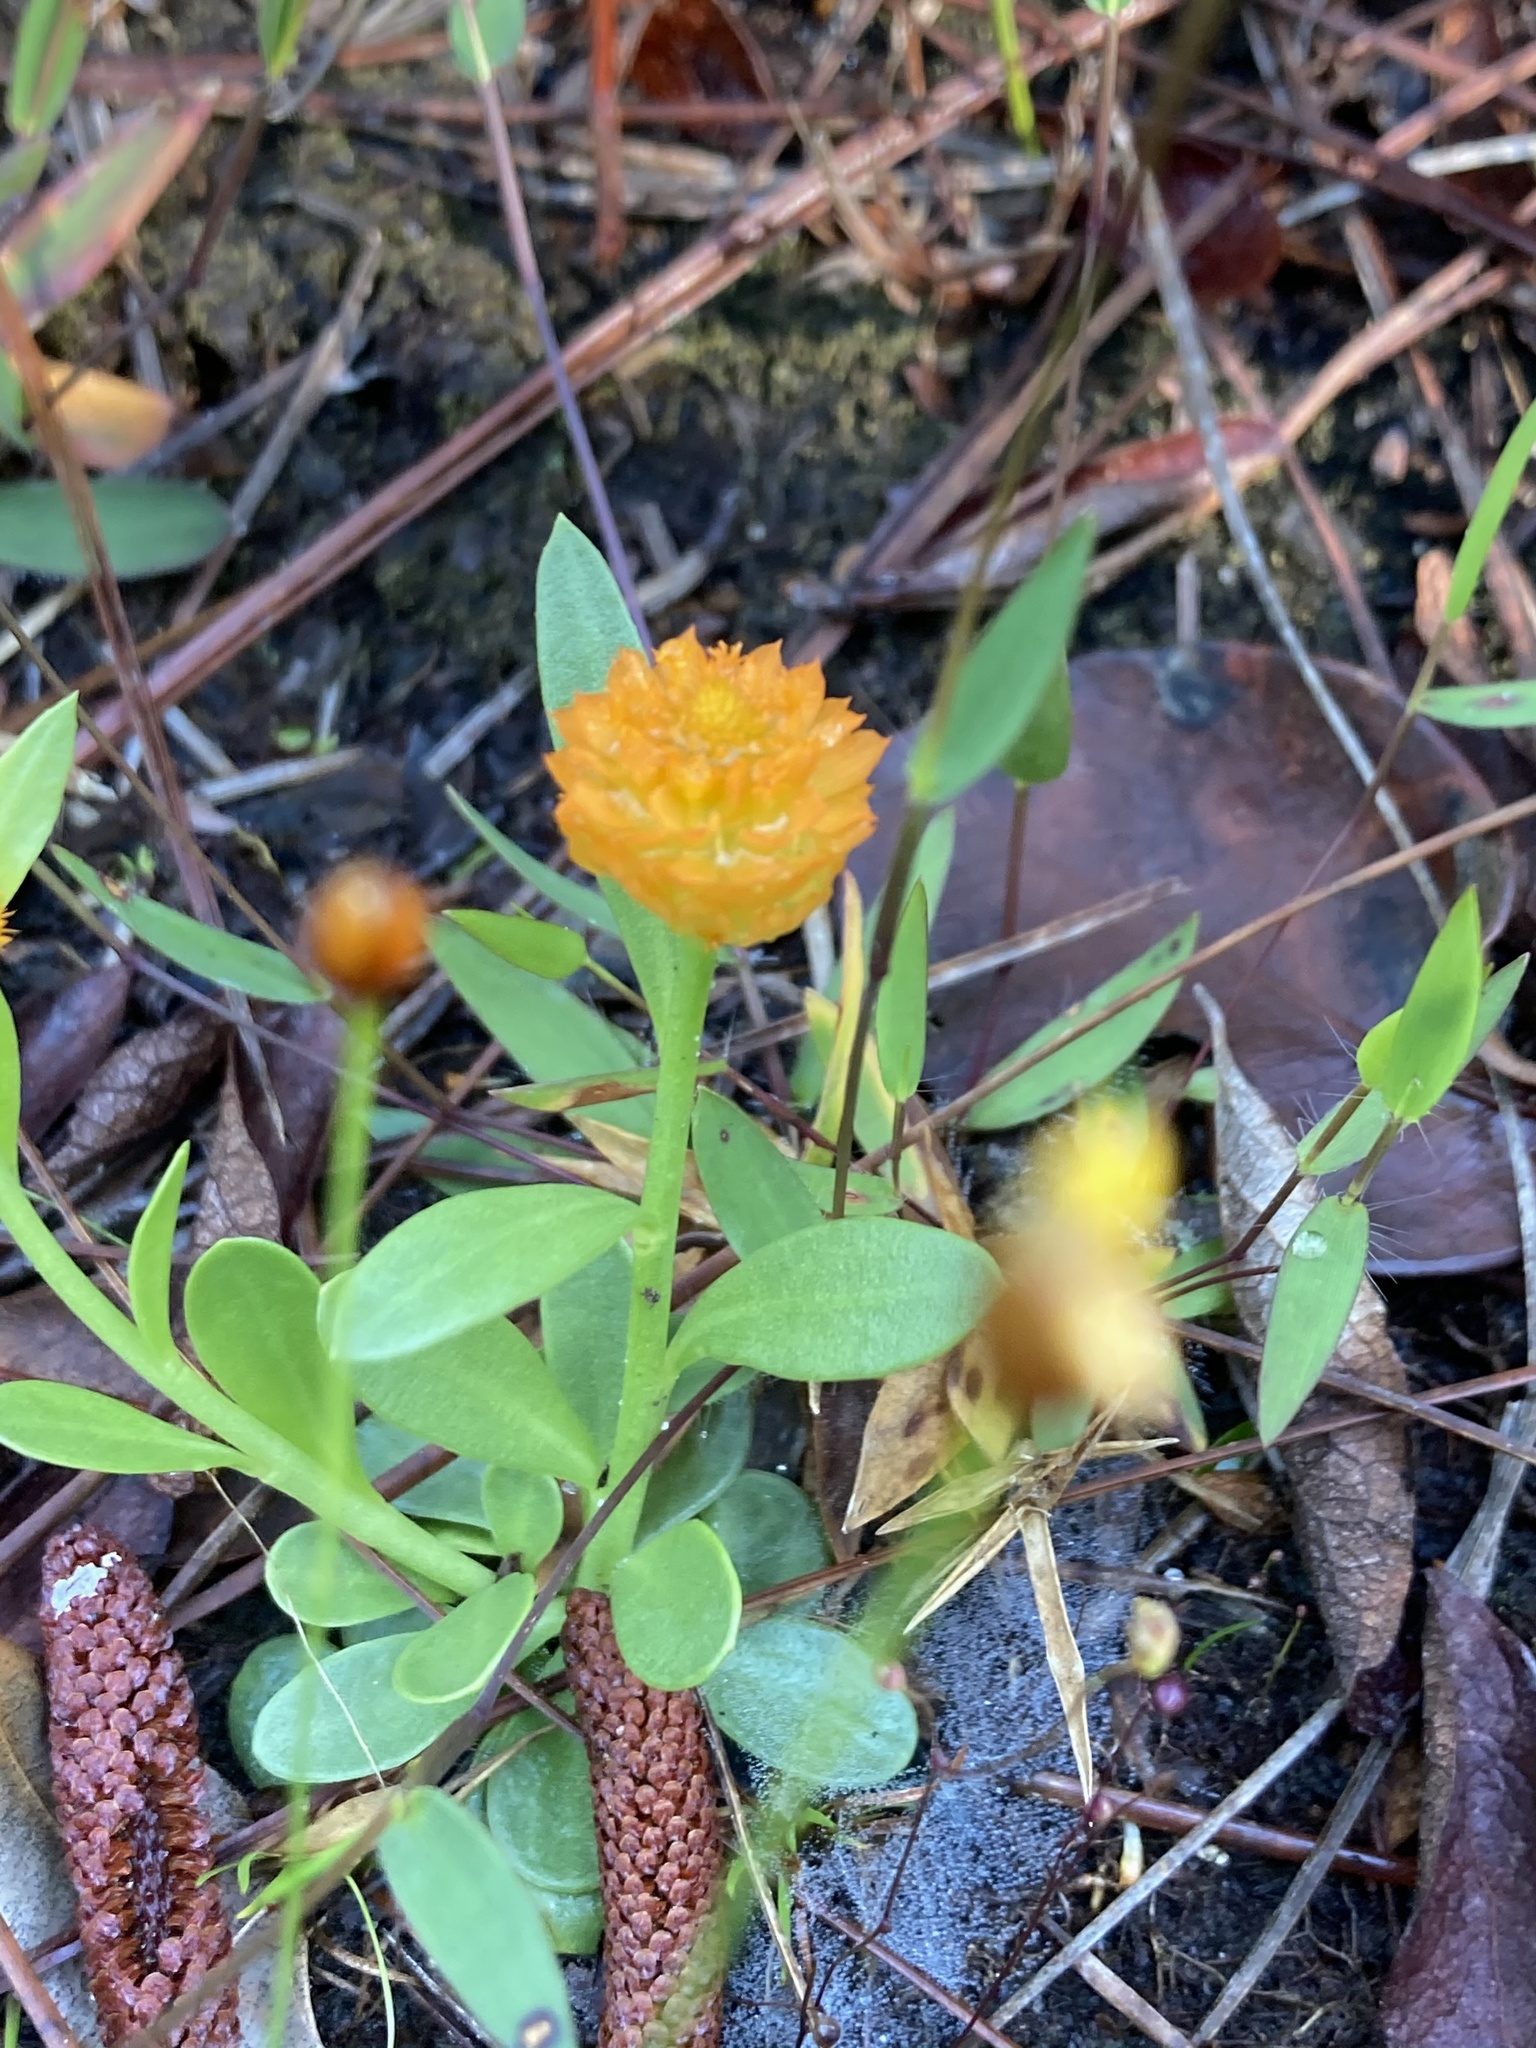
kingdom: Plantae
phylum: Tracheophyta
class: Magnoliopsida
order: Fabales
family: Polygalaceae
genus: Polygala
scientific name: Polygala lutea
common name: Orange milkwort
